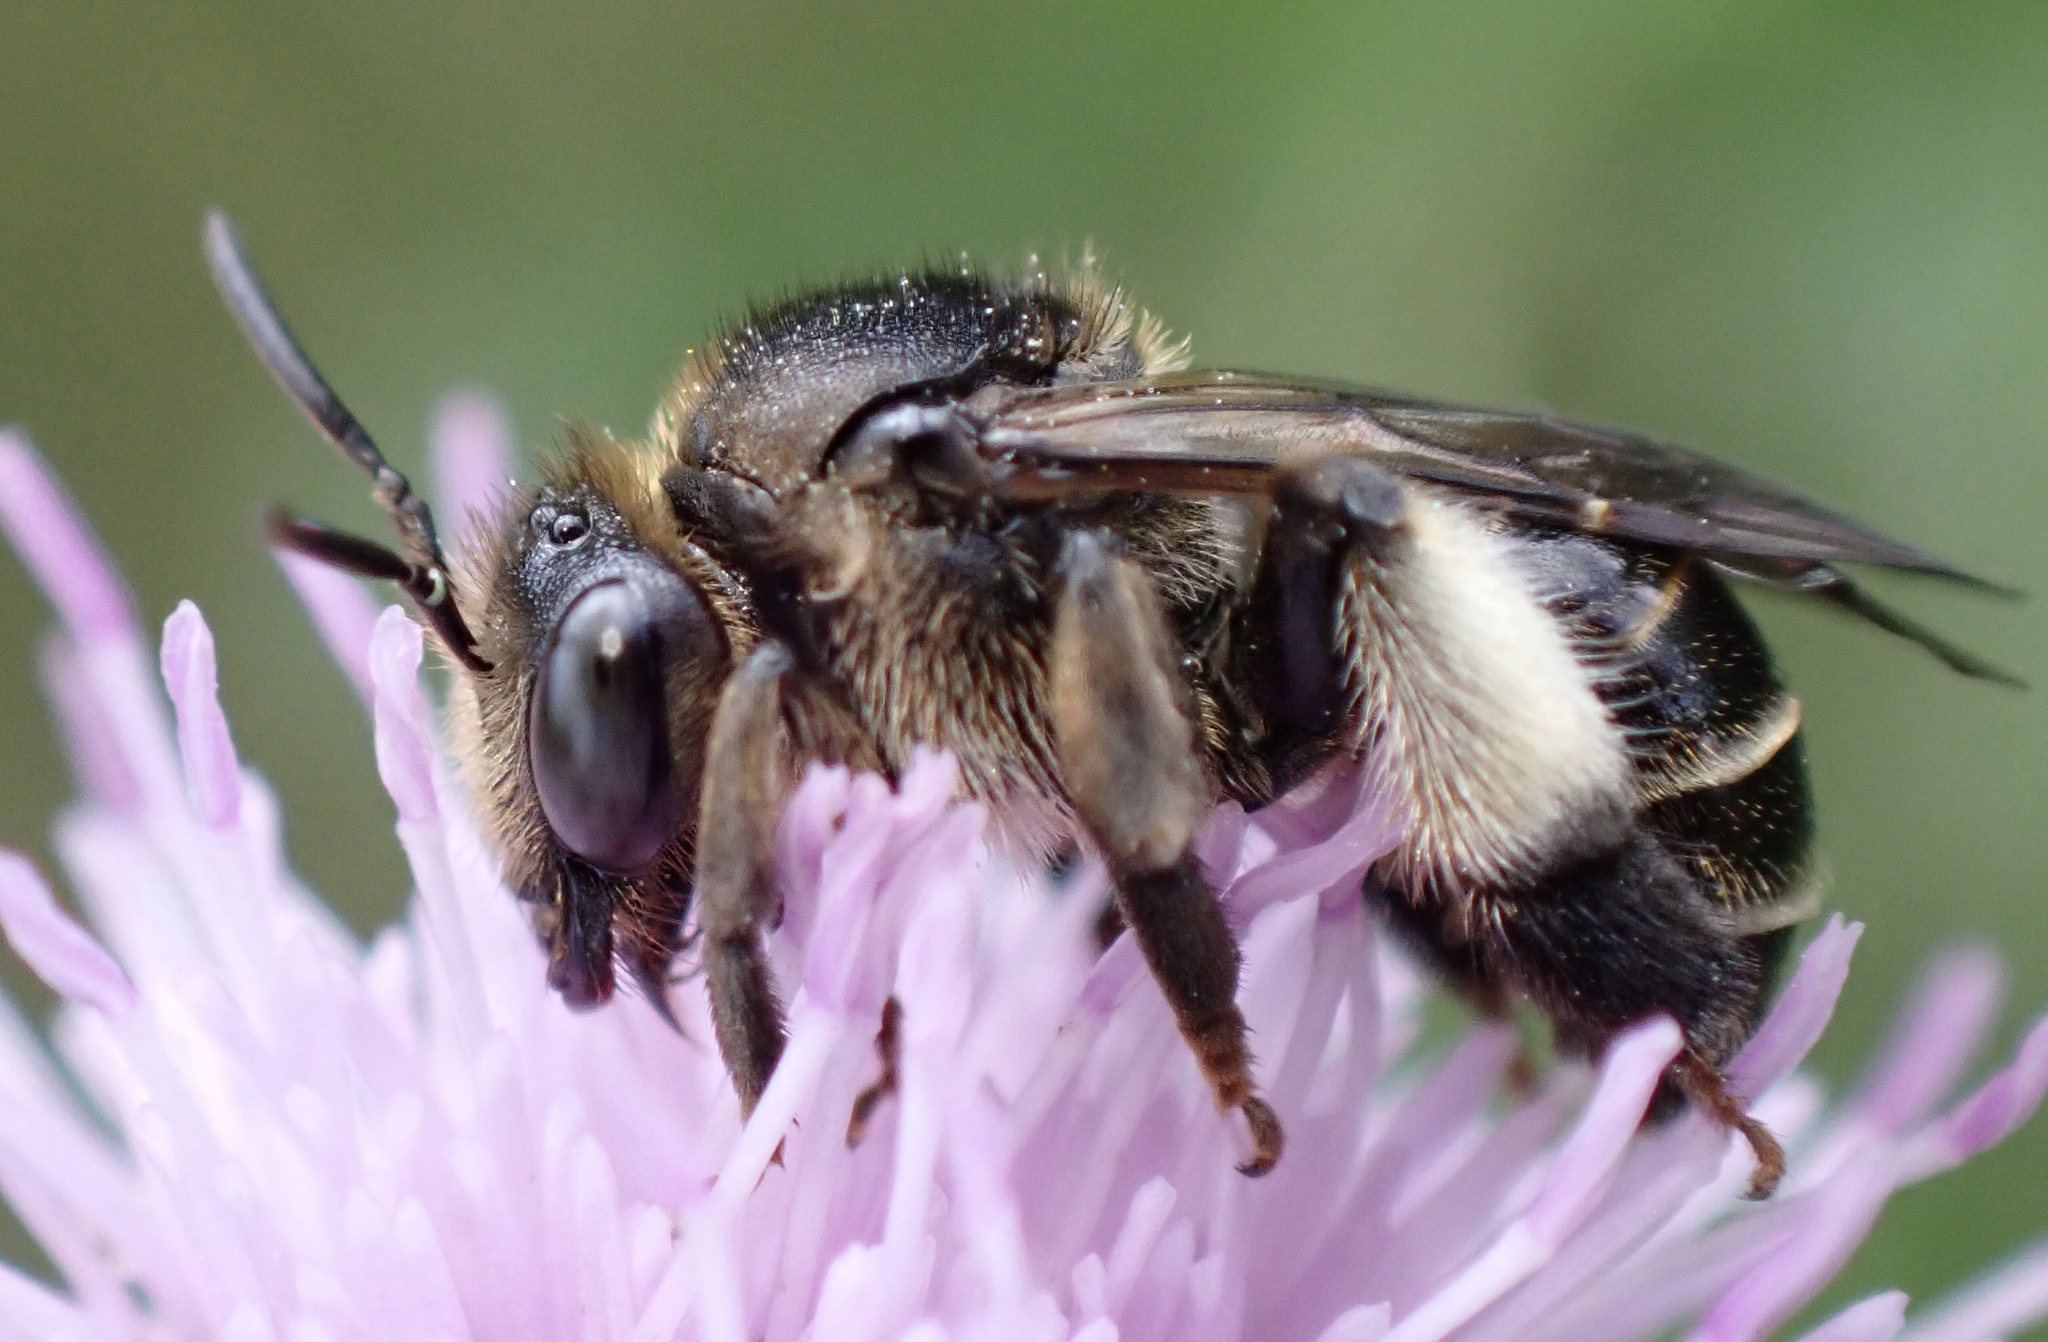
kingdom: Animalia
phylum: Arthropoda
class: Insecta
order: Hymenoptera
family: Melittidae
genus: Macropis
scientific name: Macropis europaea
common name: Yellow loosestrife bee
